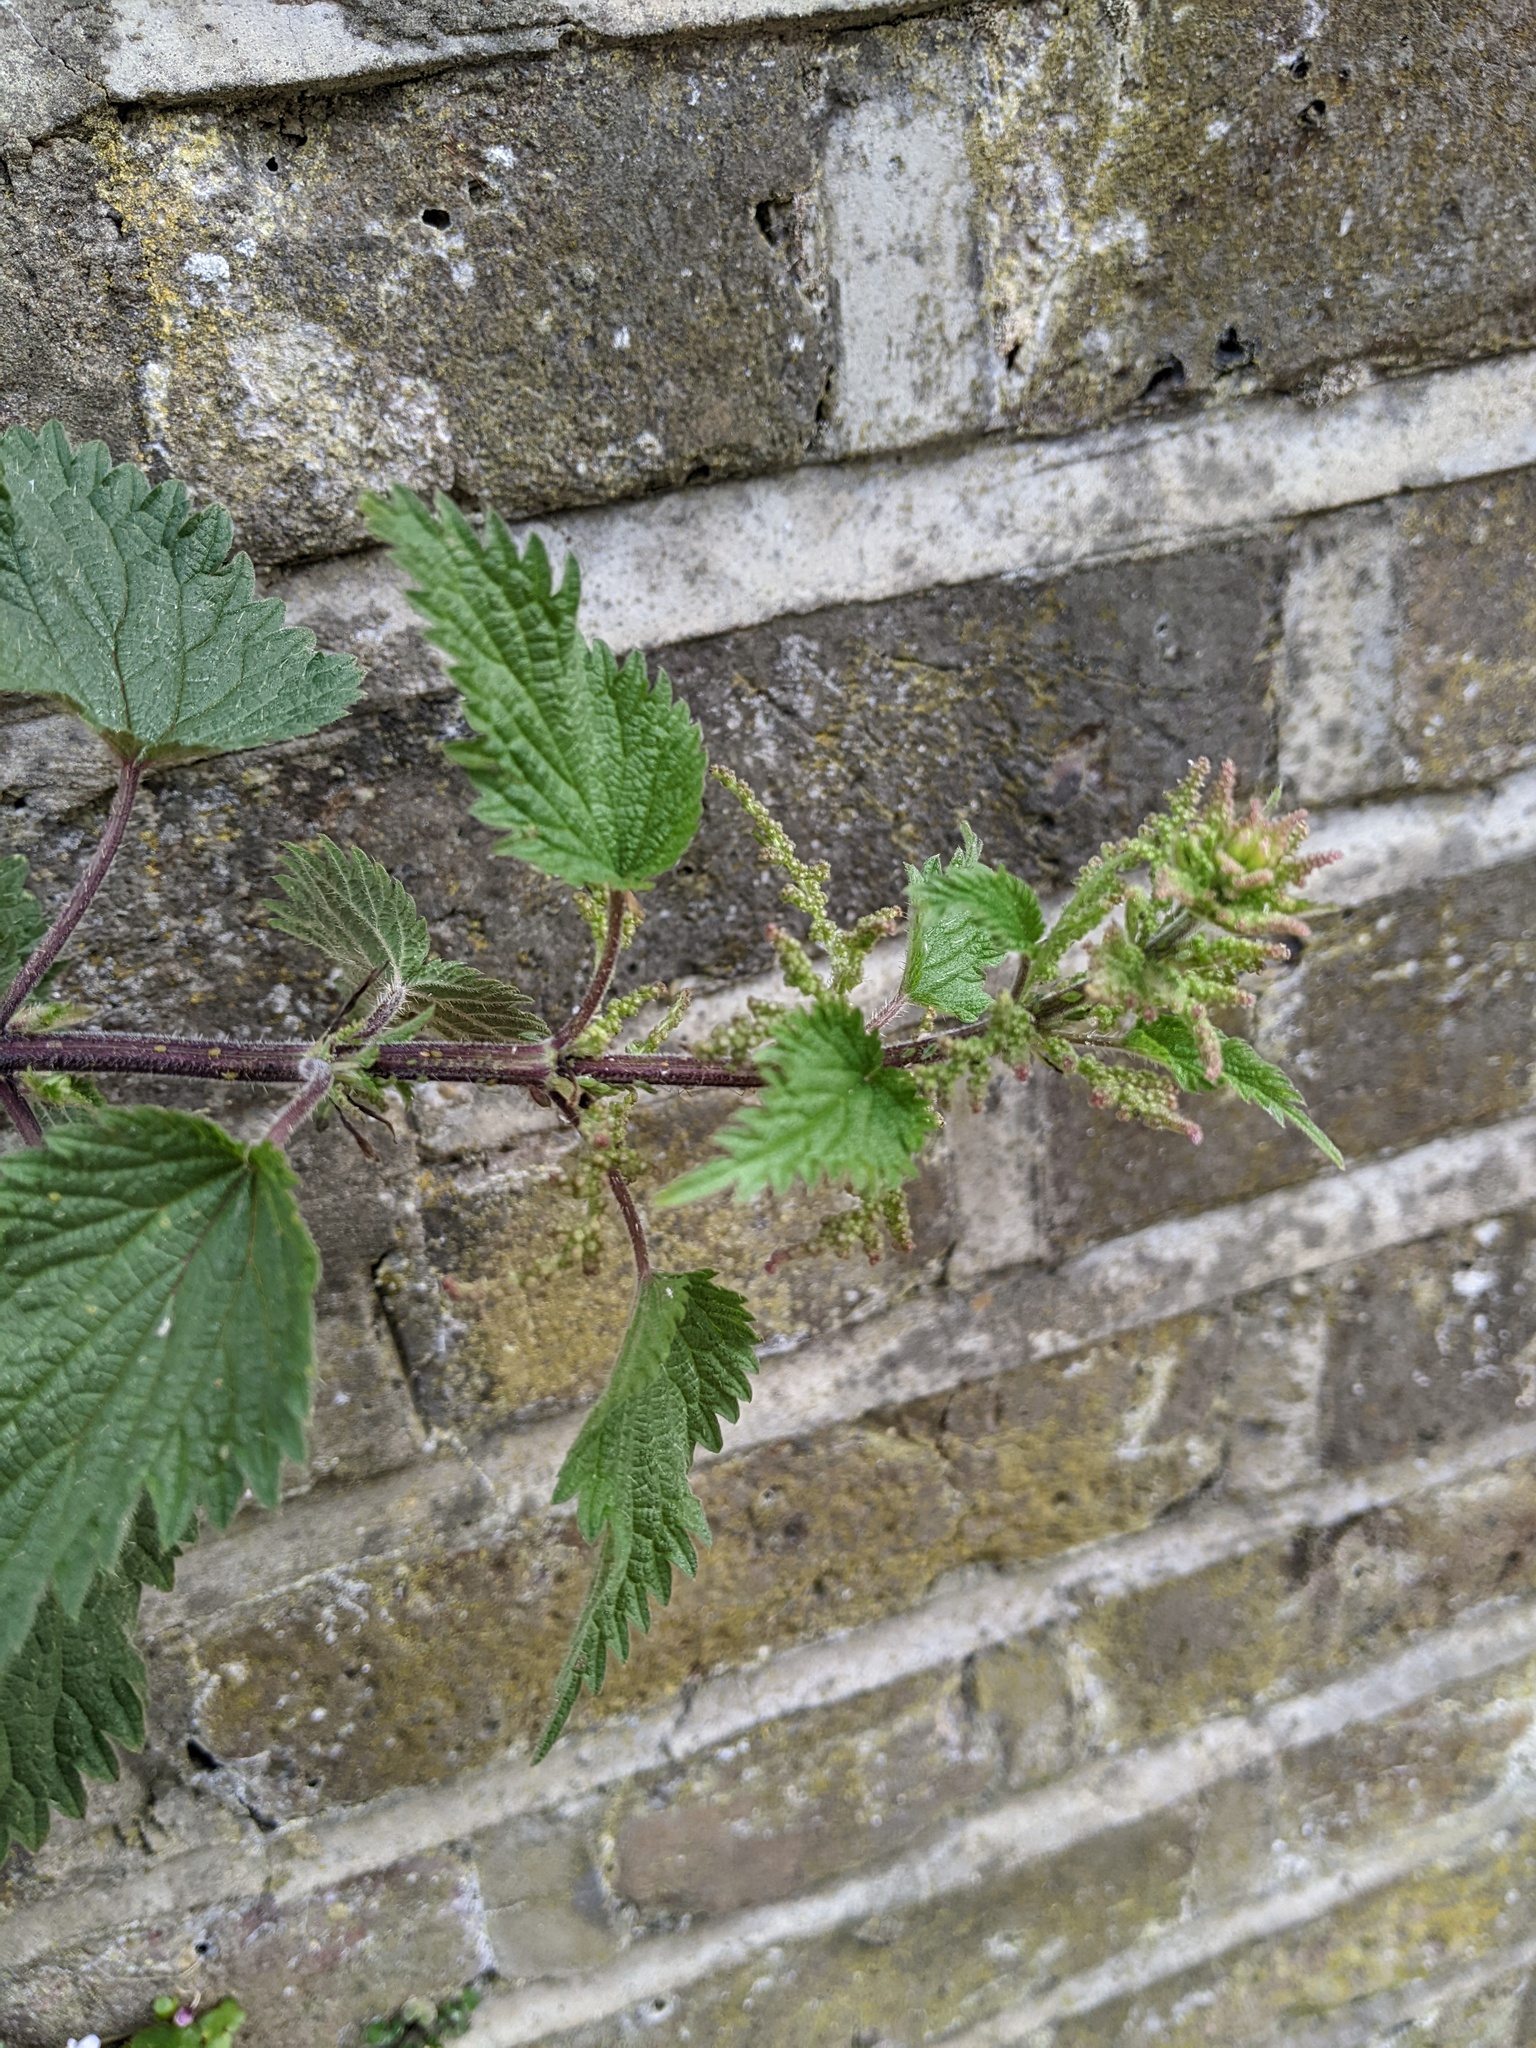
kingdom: Plantae
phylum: Tracheophyta
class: Magnoliopsida
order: Rosales
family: Urticaceae
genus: Urtica
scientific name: Urtica dioica
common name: Common nettle
